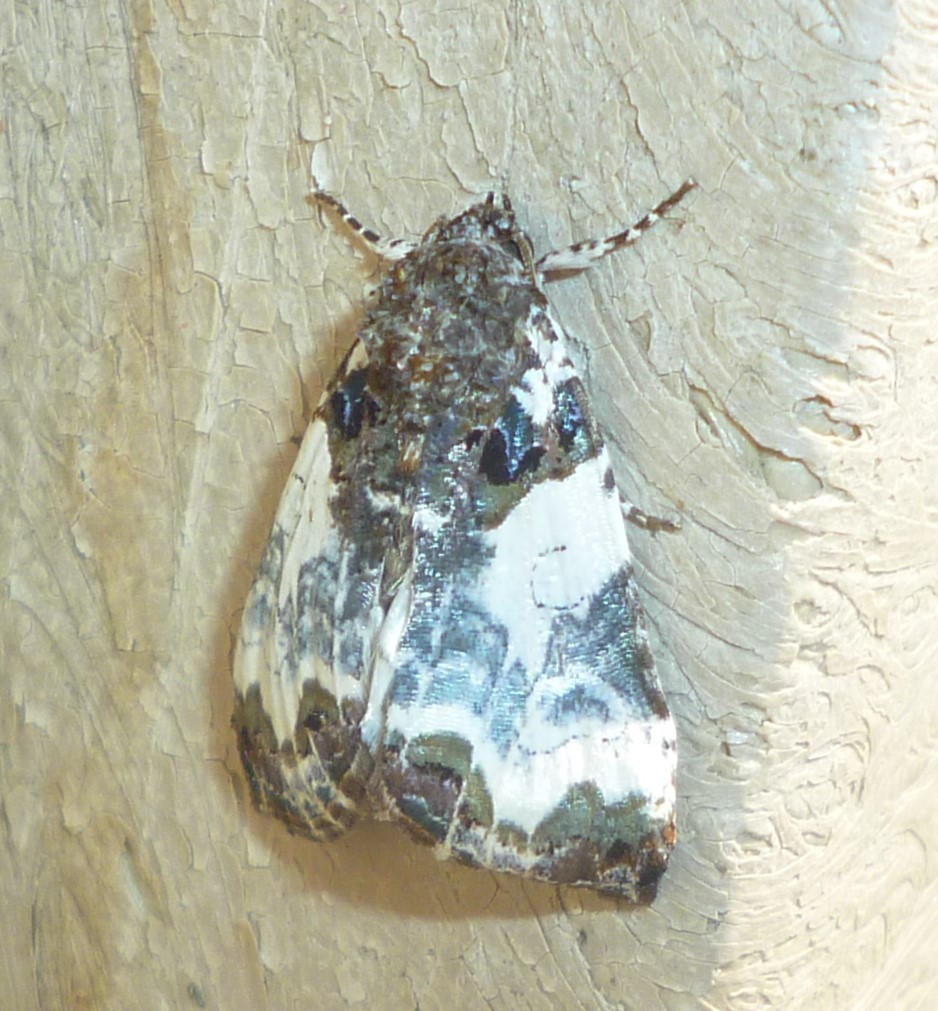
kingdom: Animalia
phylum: Arthropoda
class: Insecta
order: Lepidoptera
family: Noctuidae
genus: Cerma
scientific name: Cerma cerintha
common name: Tufted bird-dropping moth
